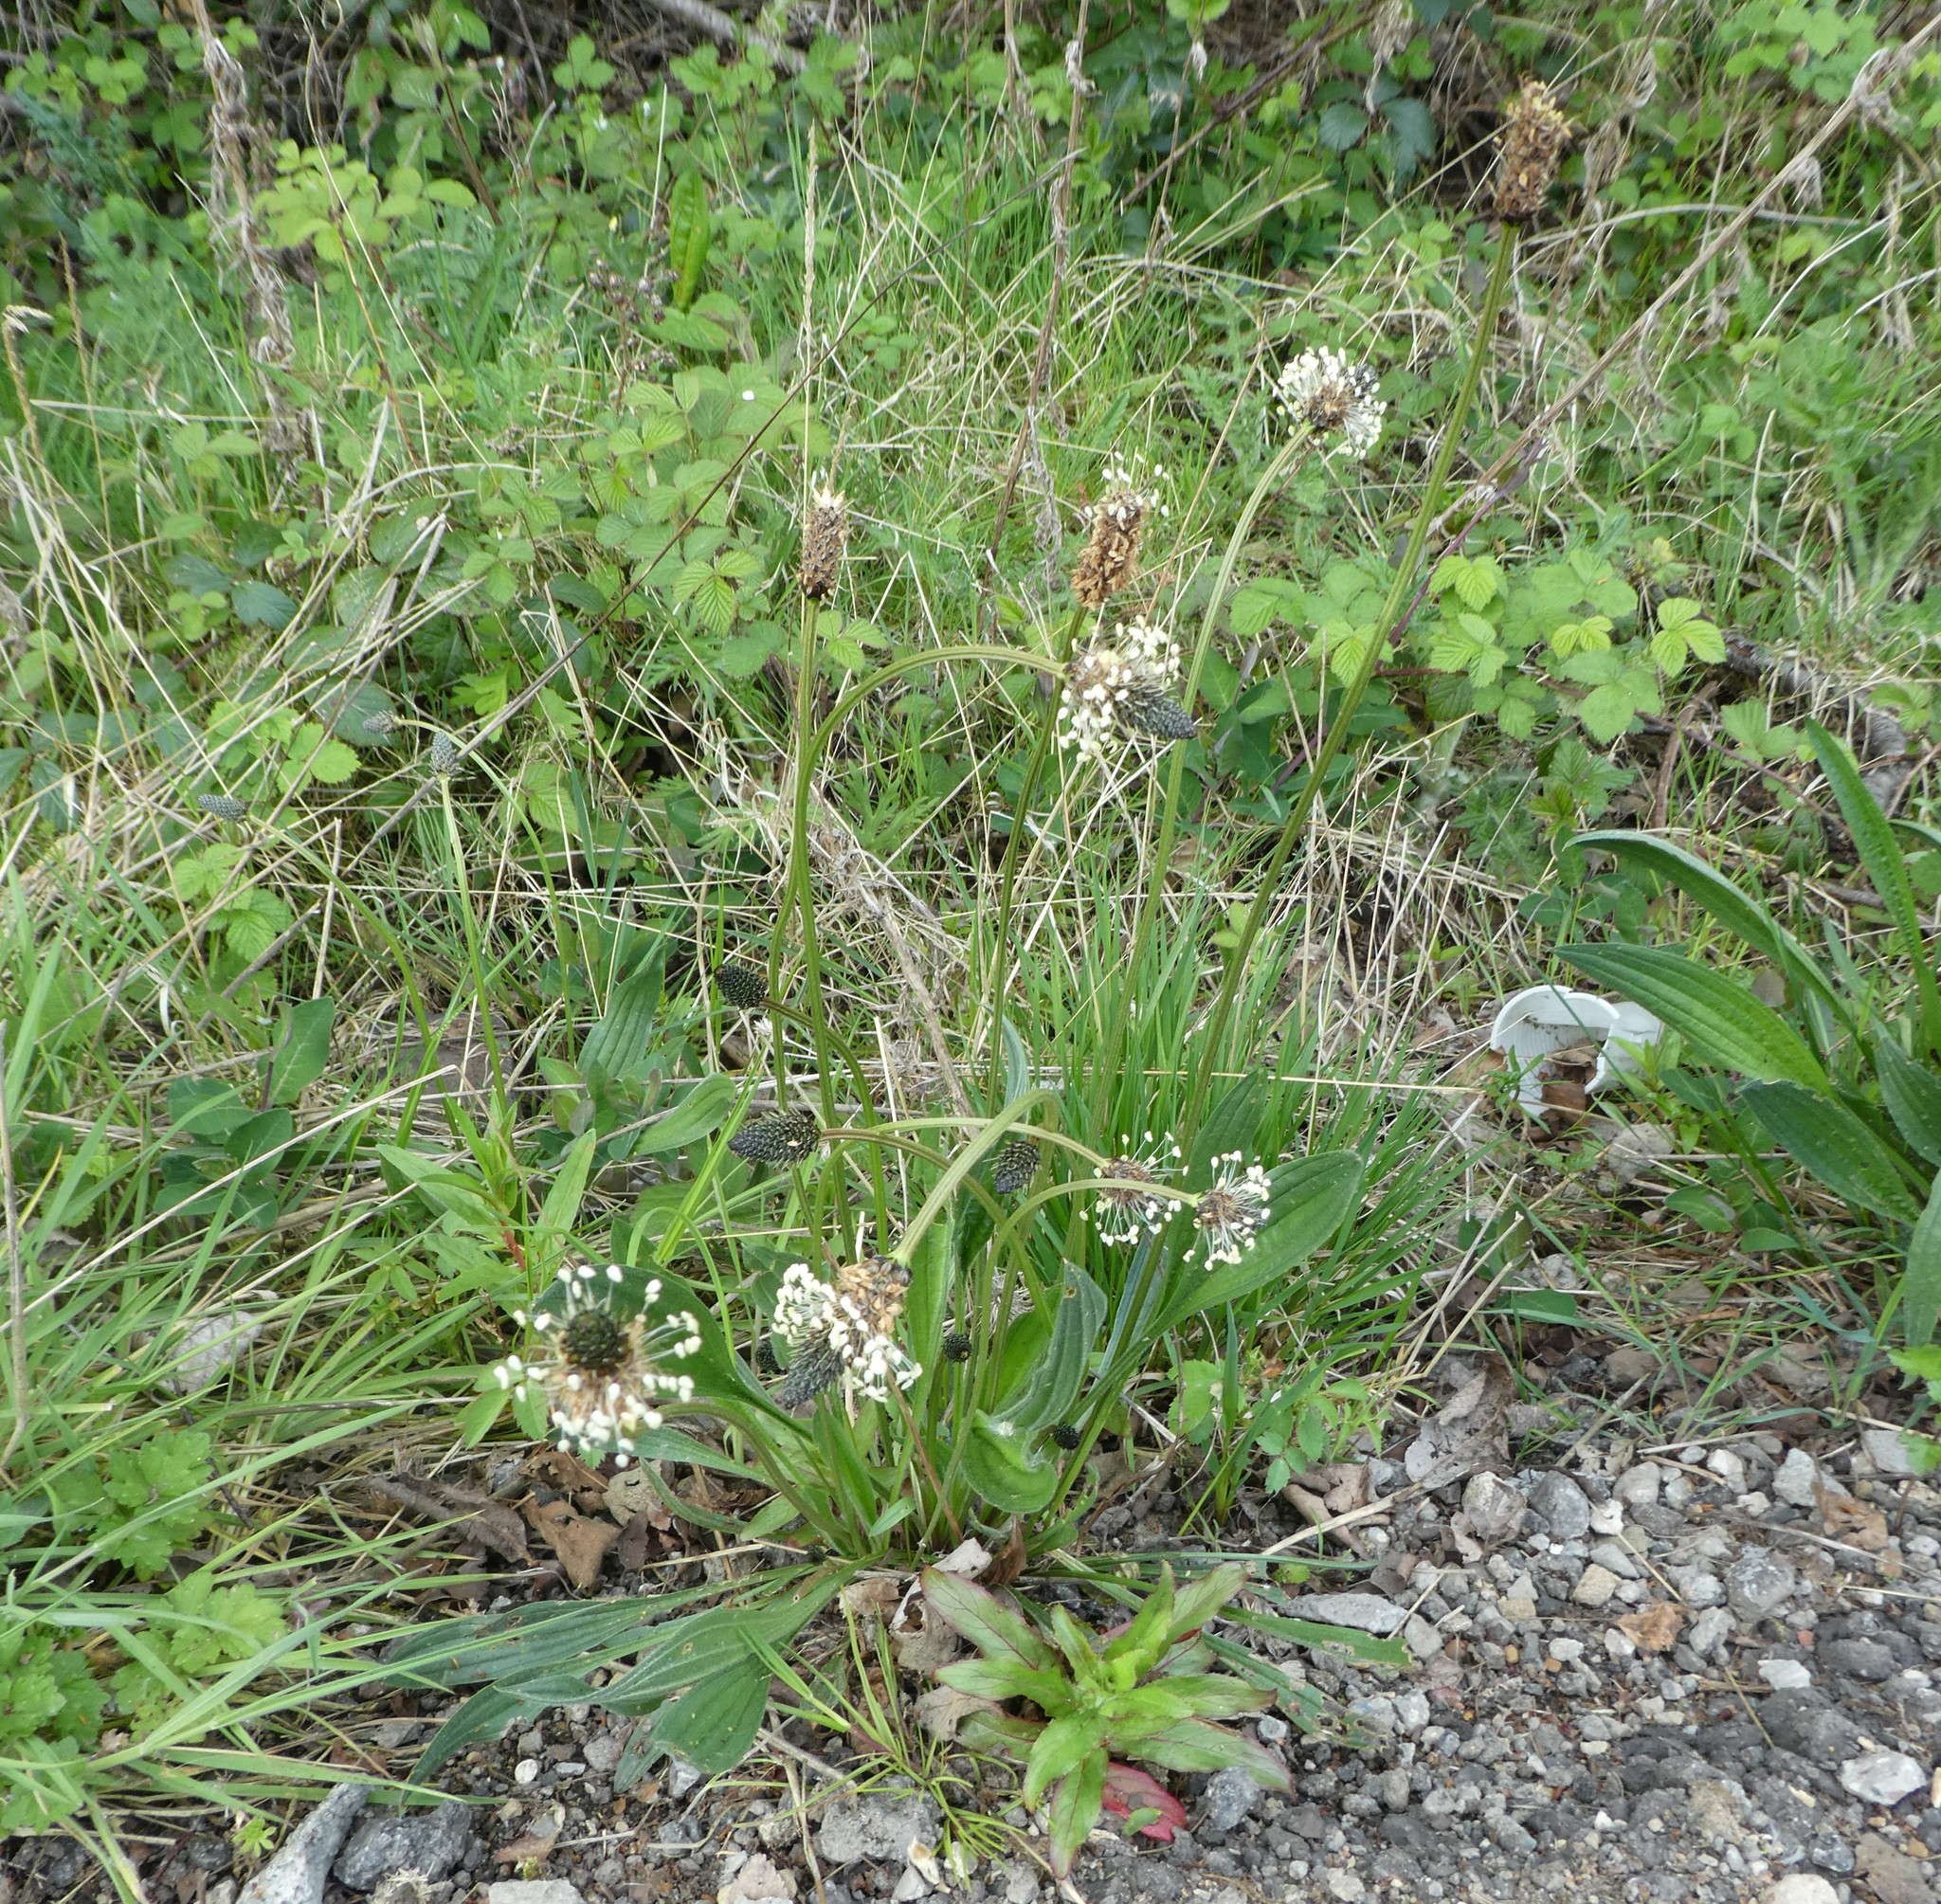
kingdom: Plantae
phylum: Tracheophyta
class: Magnoliopsida
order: Lamiales
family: Plantaginaceae
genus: Plantago
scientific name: Plantago lanceolata
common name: Ribwort plantain
